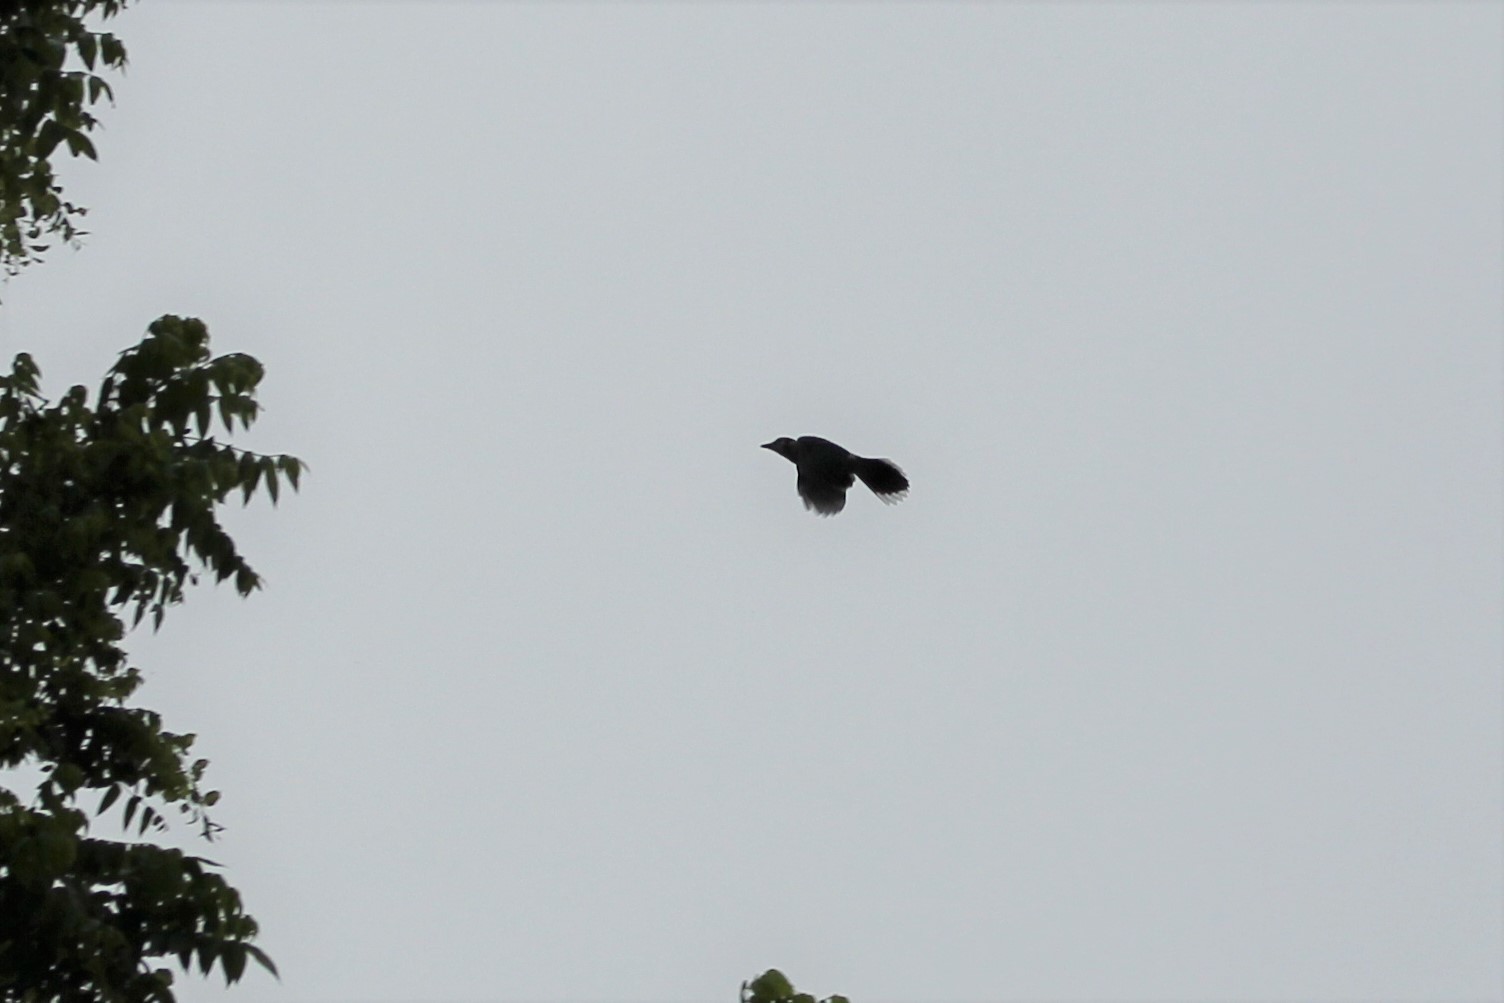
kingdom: Animalia
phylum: Chordata
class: Aves
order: Passeriformes
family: Corvidae
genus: Cyanocitta
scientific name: Cyanocitta cristata
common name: Blue jay
